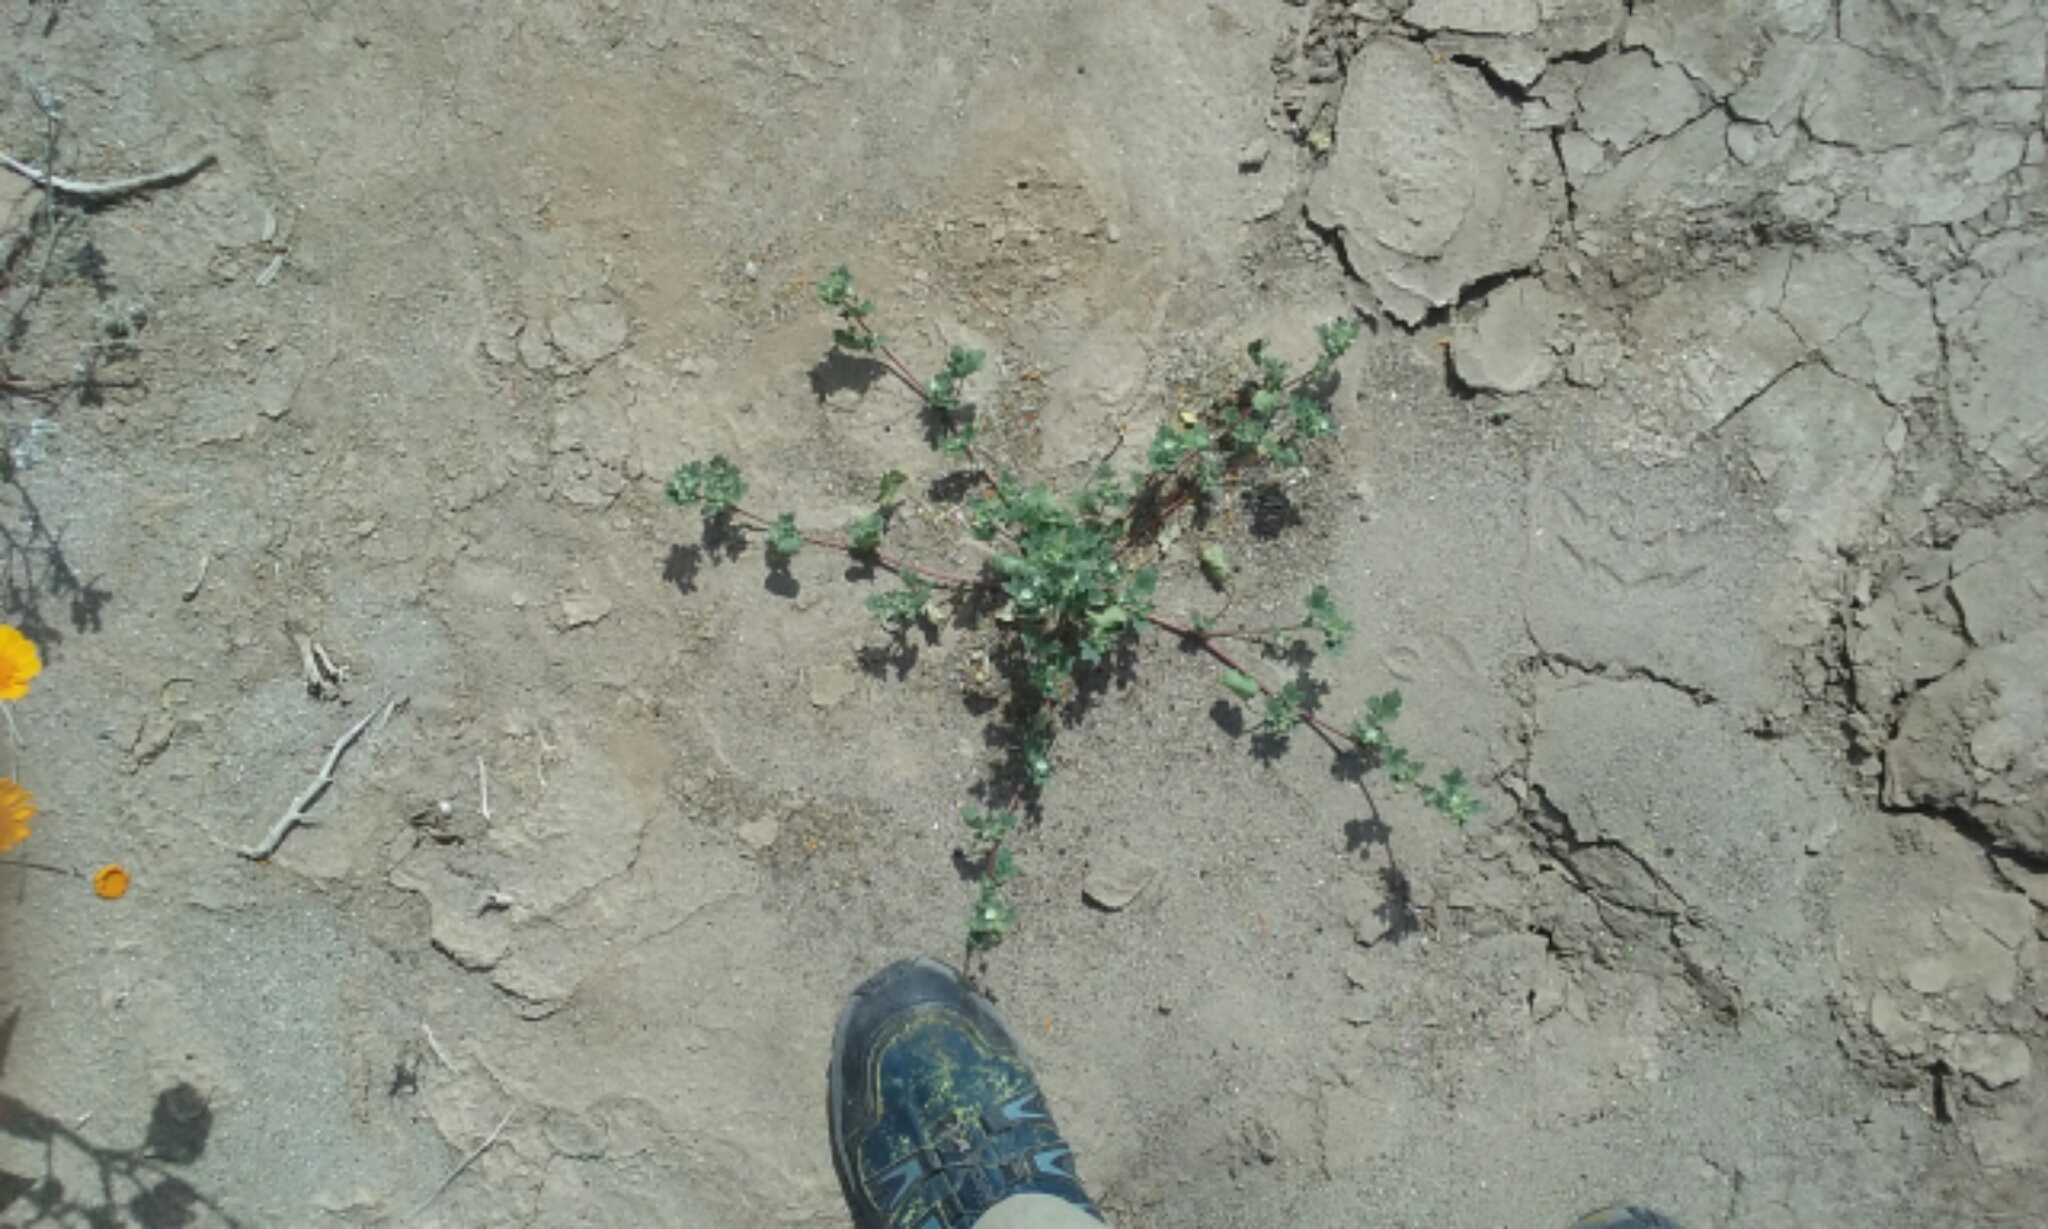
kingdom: Plantae
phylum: Tracheophyta
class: Magnoliopsida
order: Malvales
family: Malvaceae
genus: Eremalche
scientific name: Eremalche exilis
